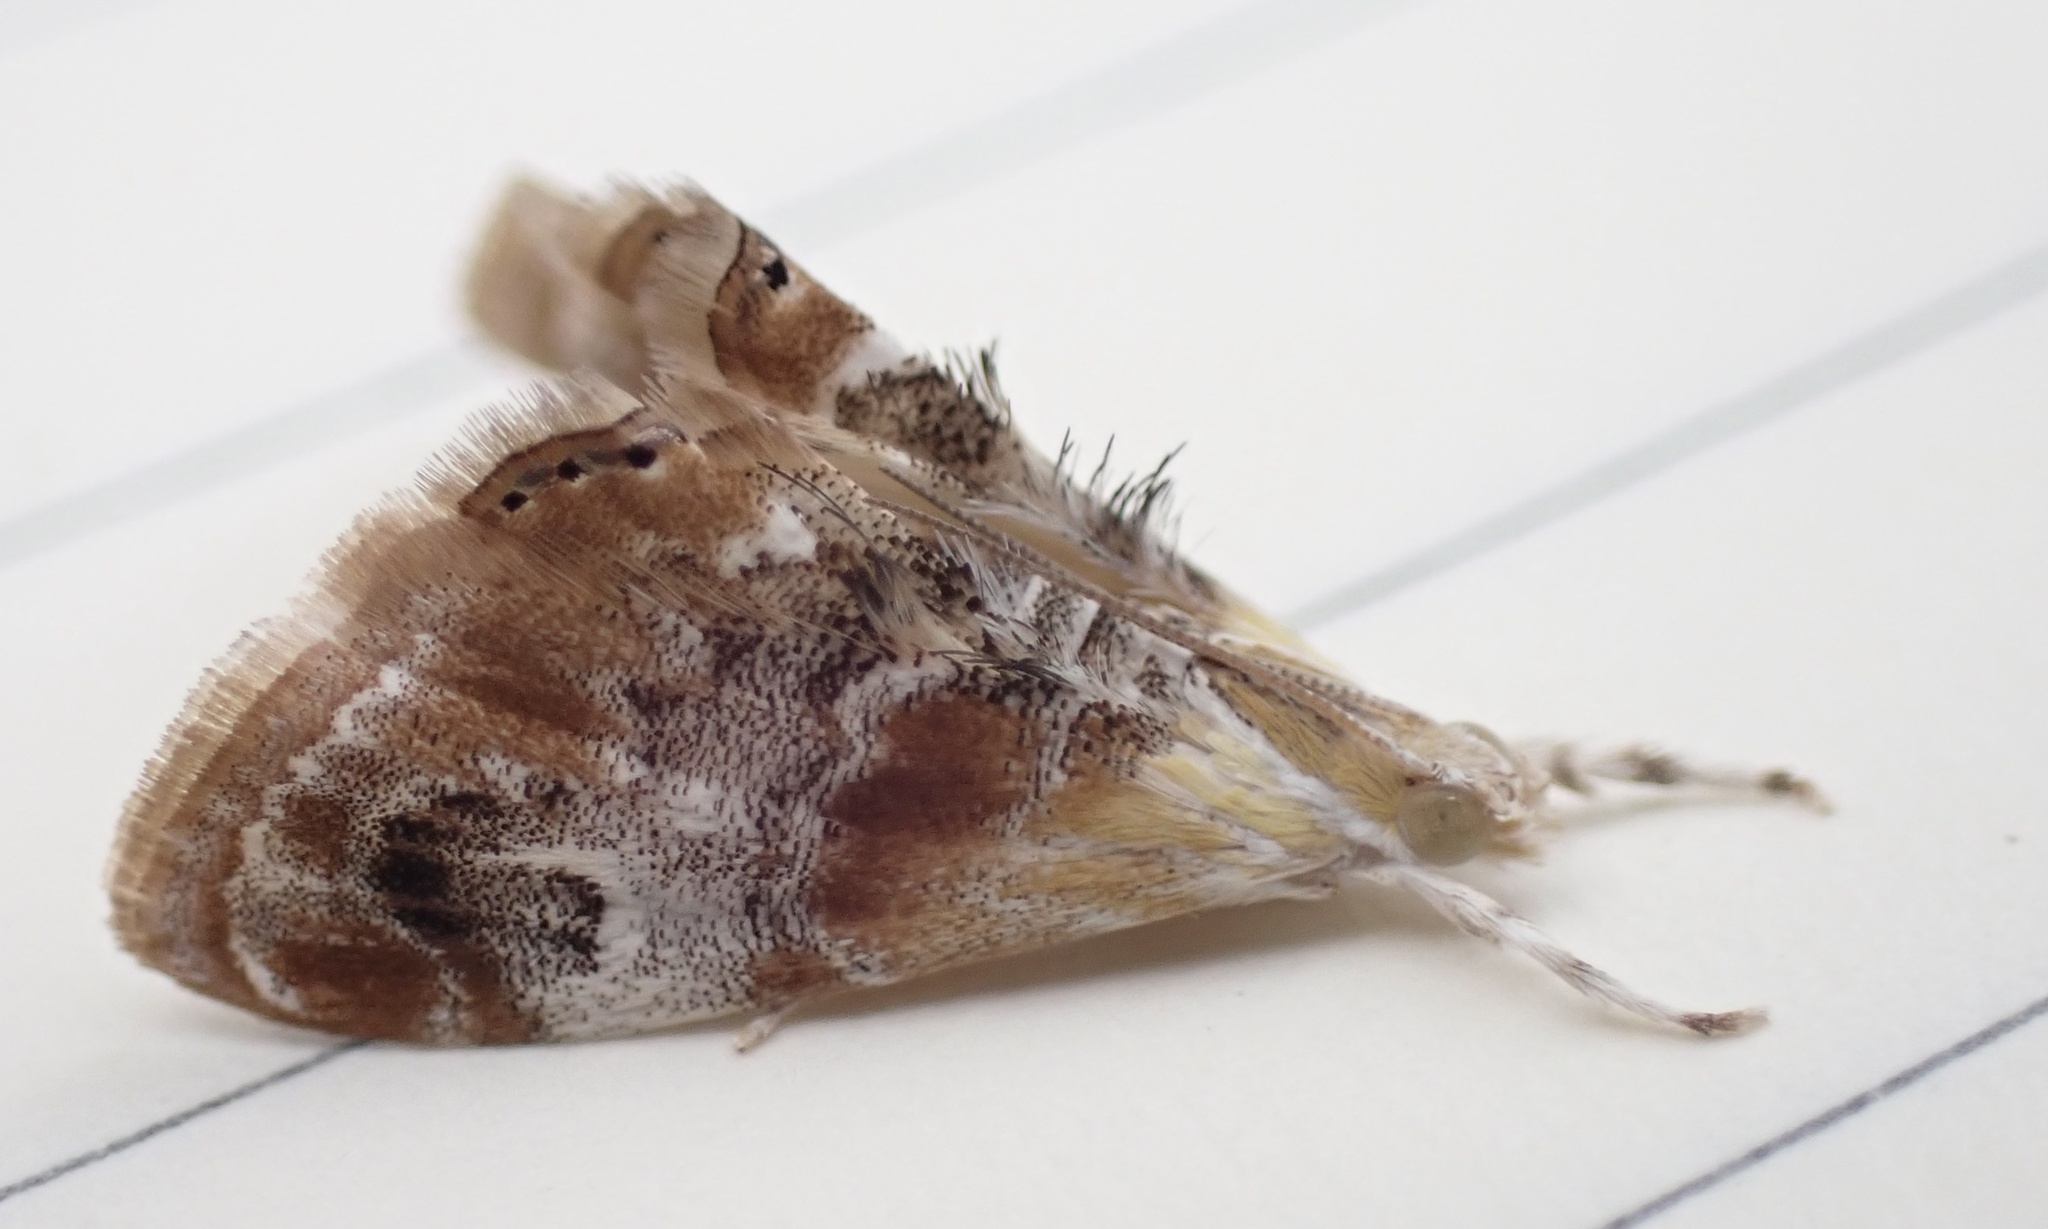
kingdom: Animalia
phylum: Arthropoda
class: Insecta
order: Lepidoptera
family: Crambidae
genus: Dicymolomia
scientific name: Dicymolomia julianalis
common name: Julia's dicymolomia moth
